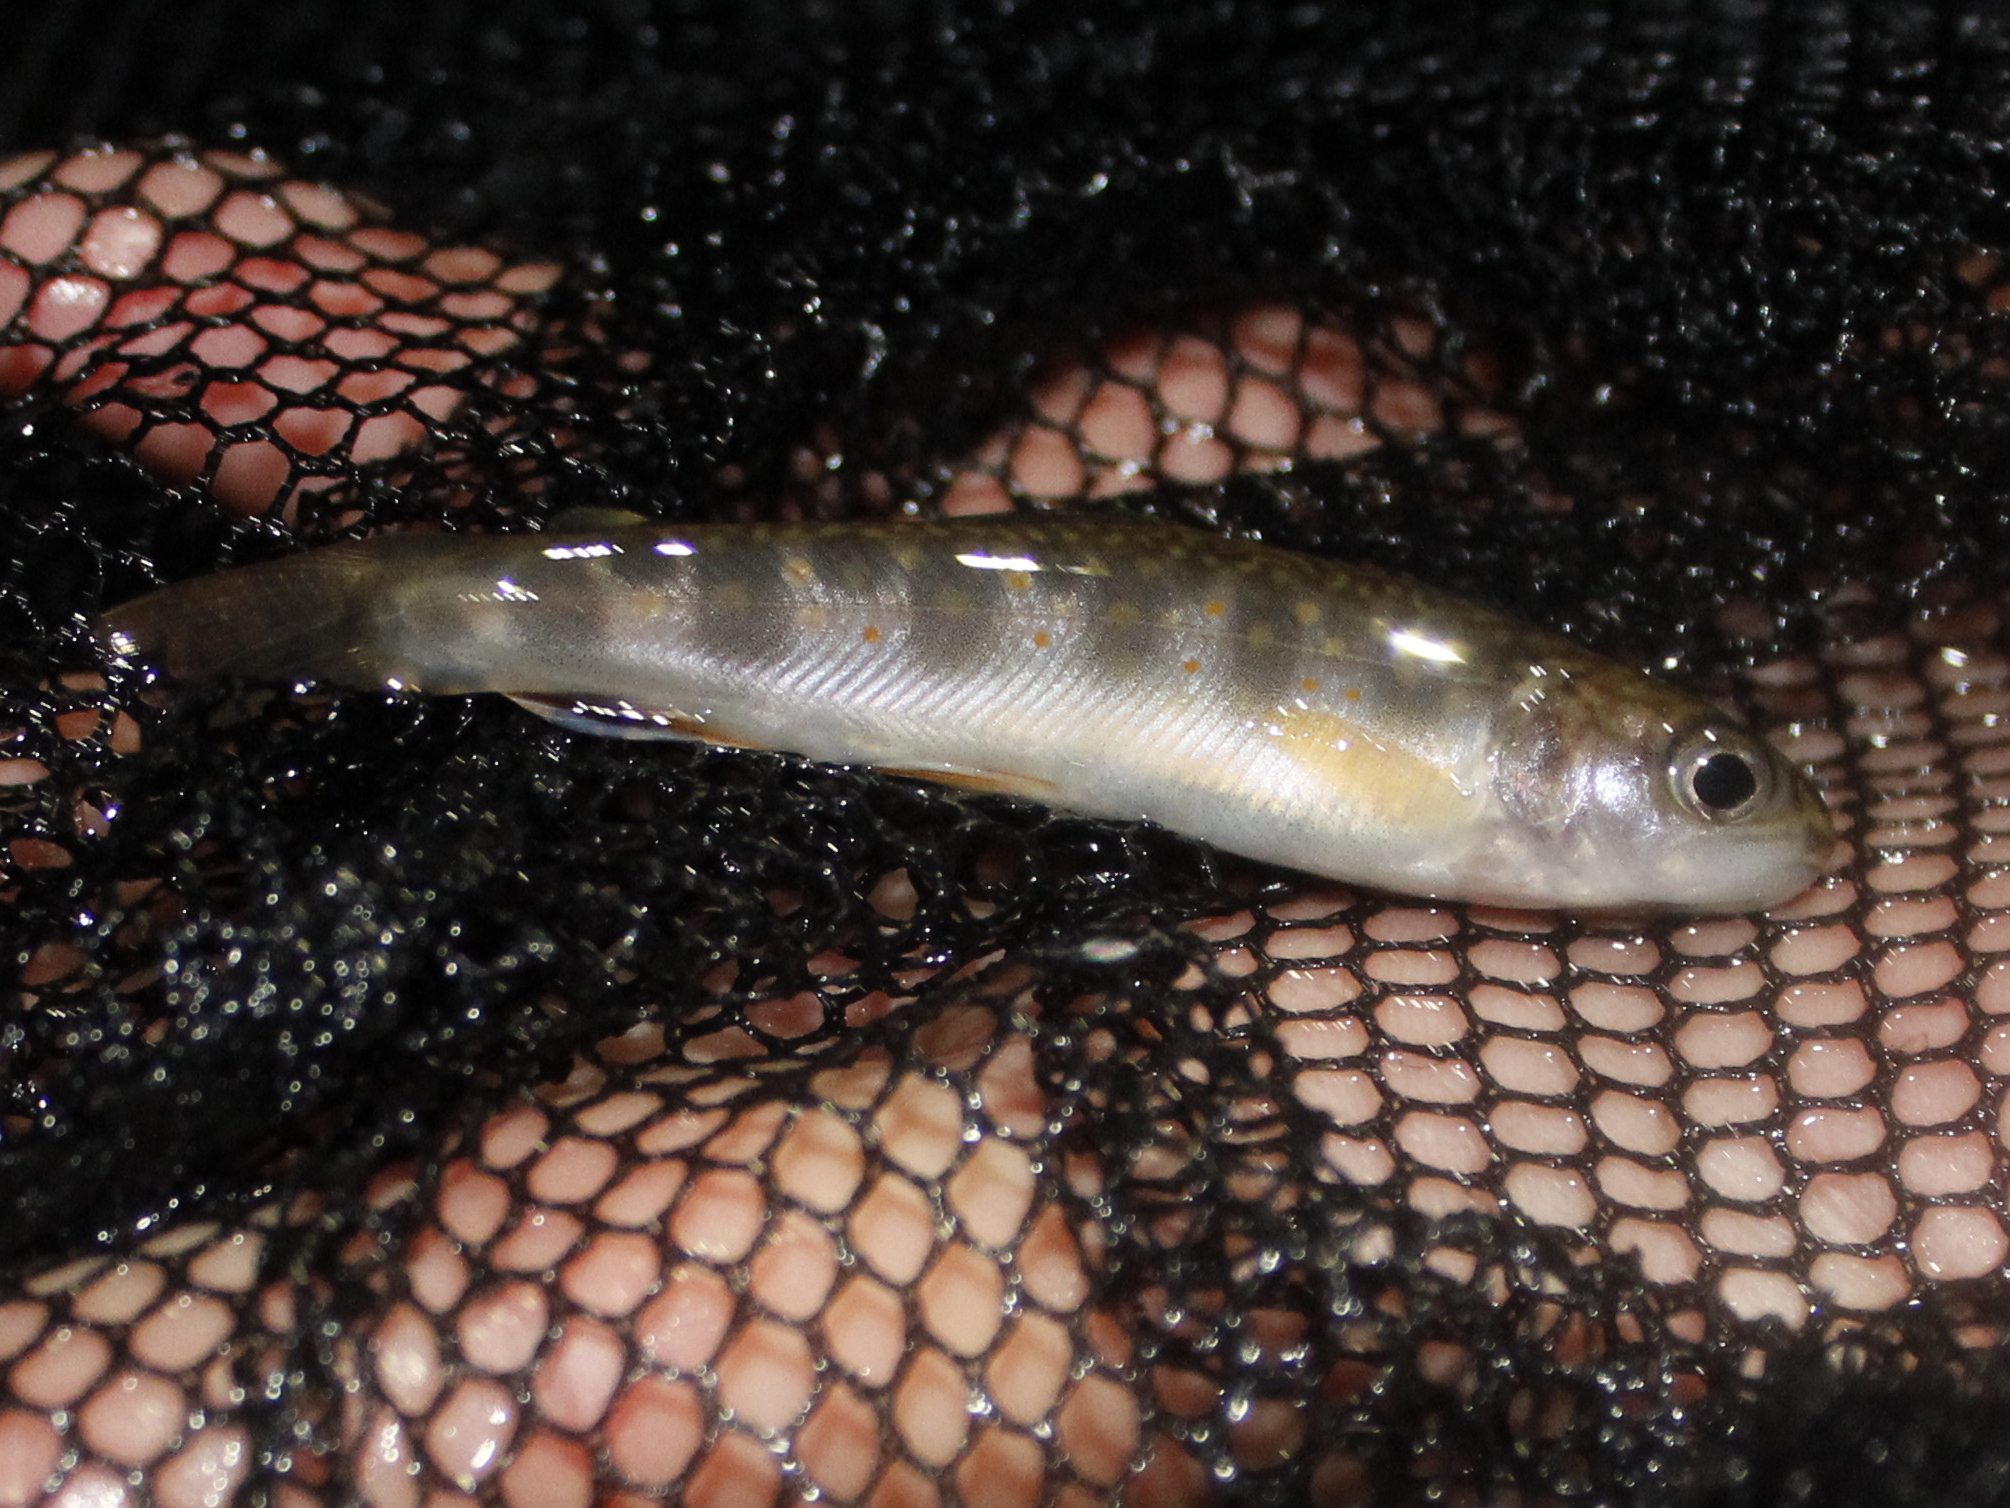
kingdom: Animalia
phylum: Chordata
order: Salmoniformes
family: Salmonidae
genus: Salvelinus
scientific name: Salvelinus fontinalis
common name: Brook trout
